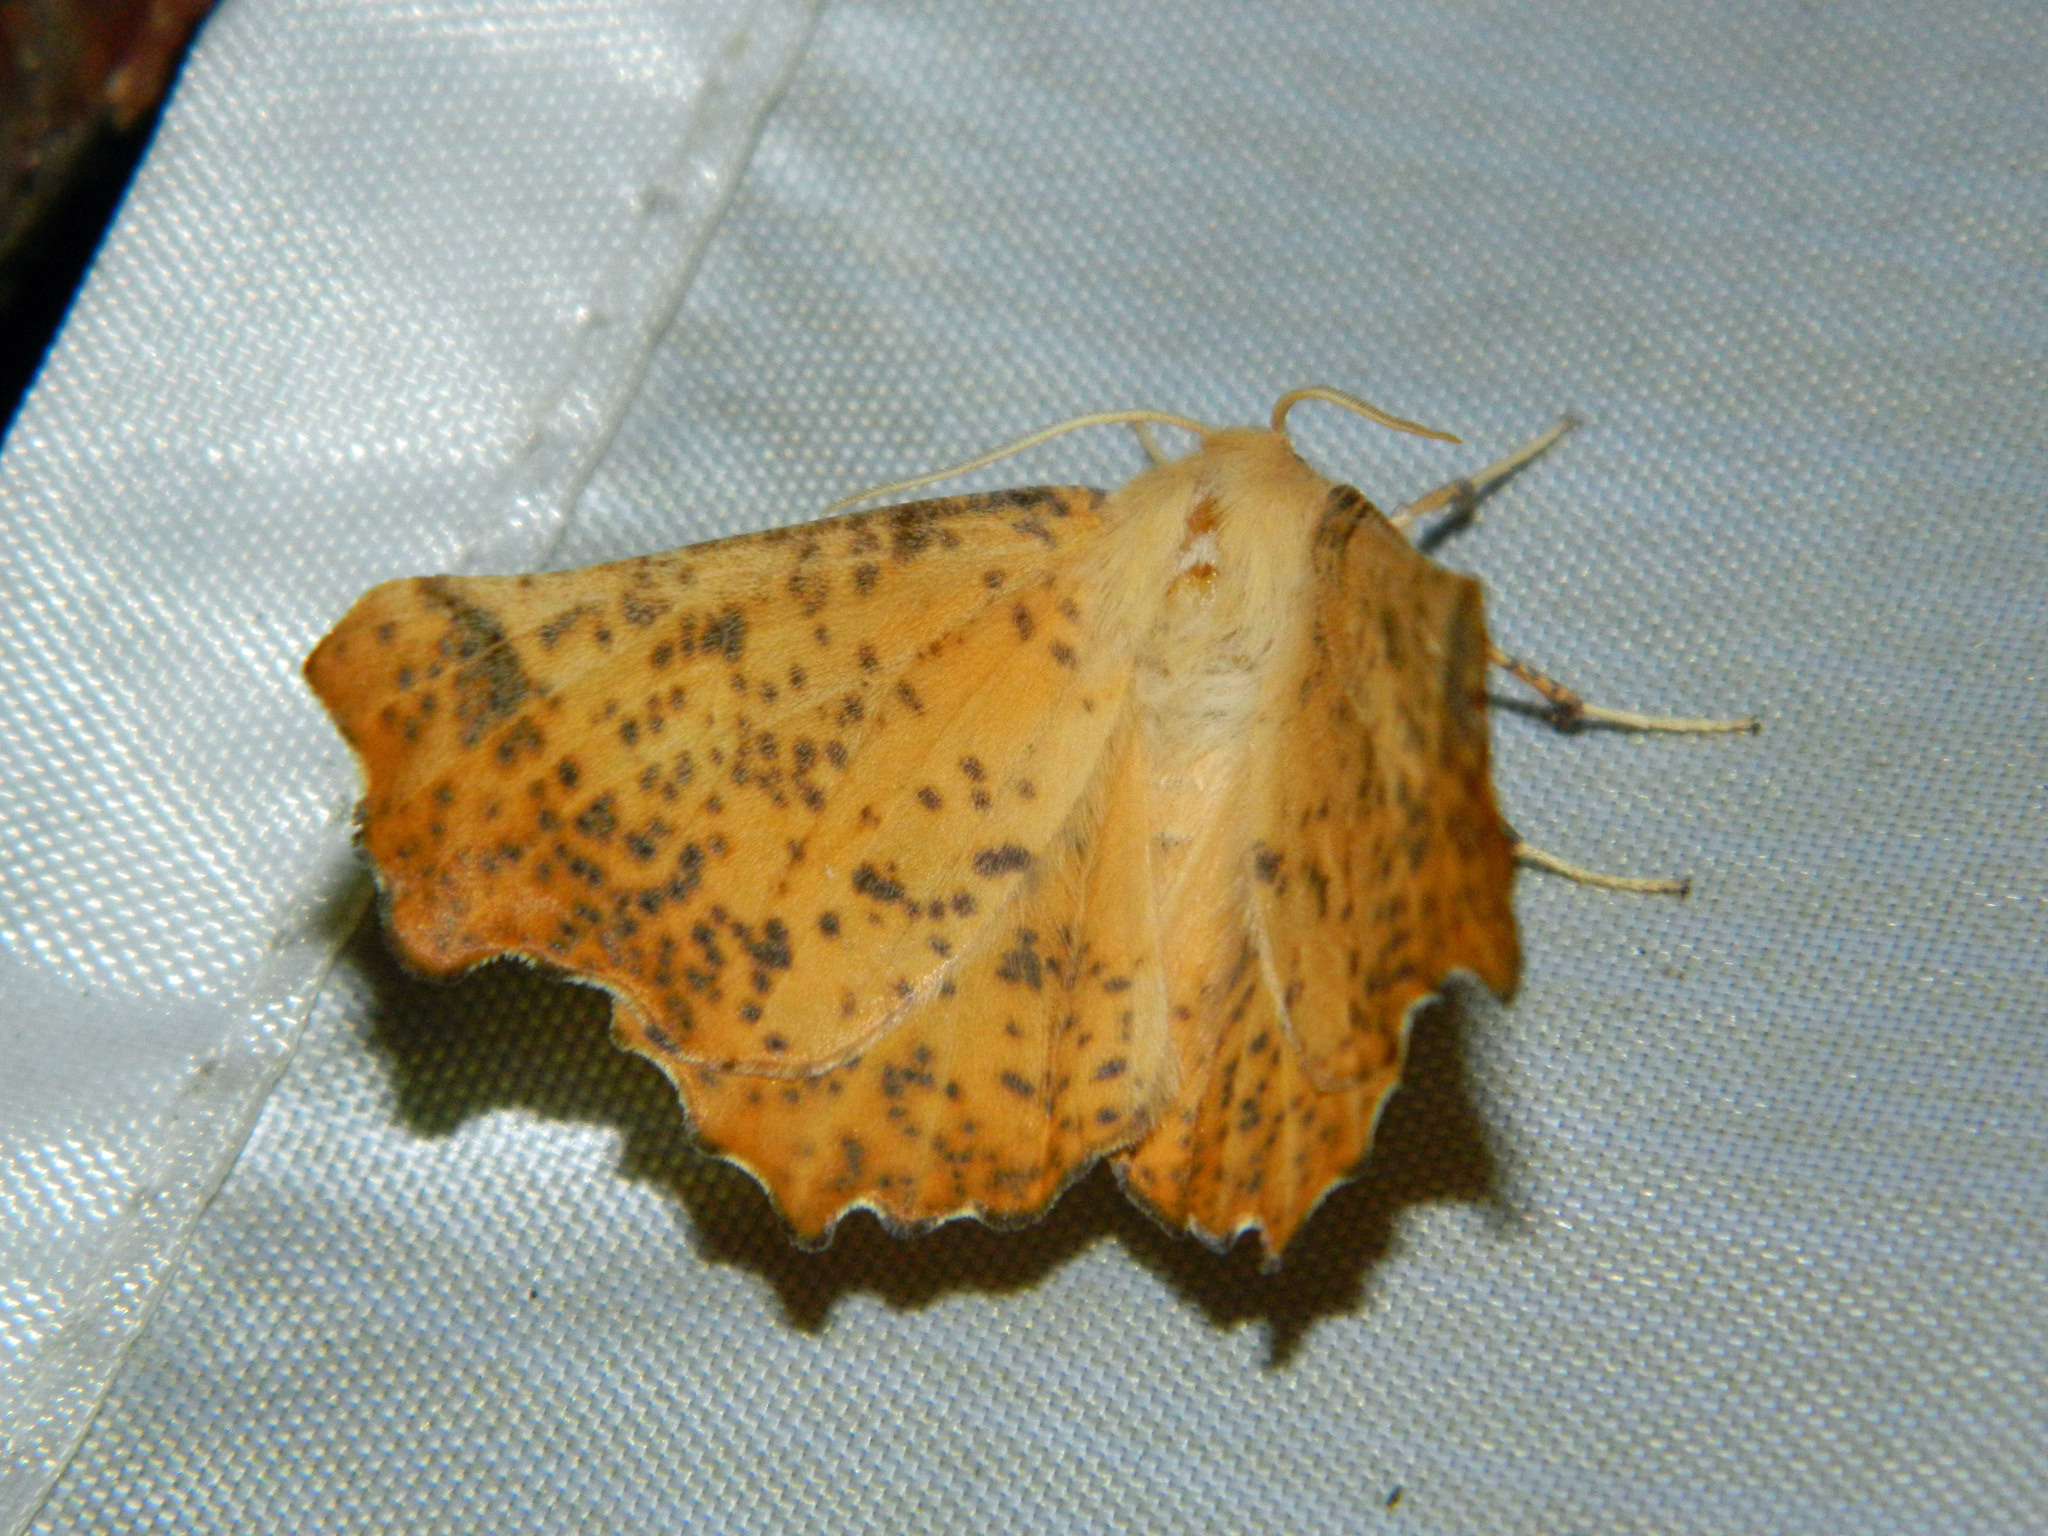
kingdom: Animalia
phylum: Arthropoda
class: Insecta
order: Lepidoptera
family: Geometridae
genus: Ennomos
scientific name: Ennomos magnaria
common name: Maple spanworm
